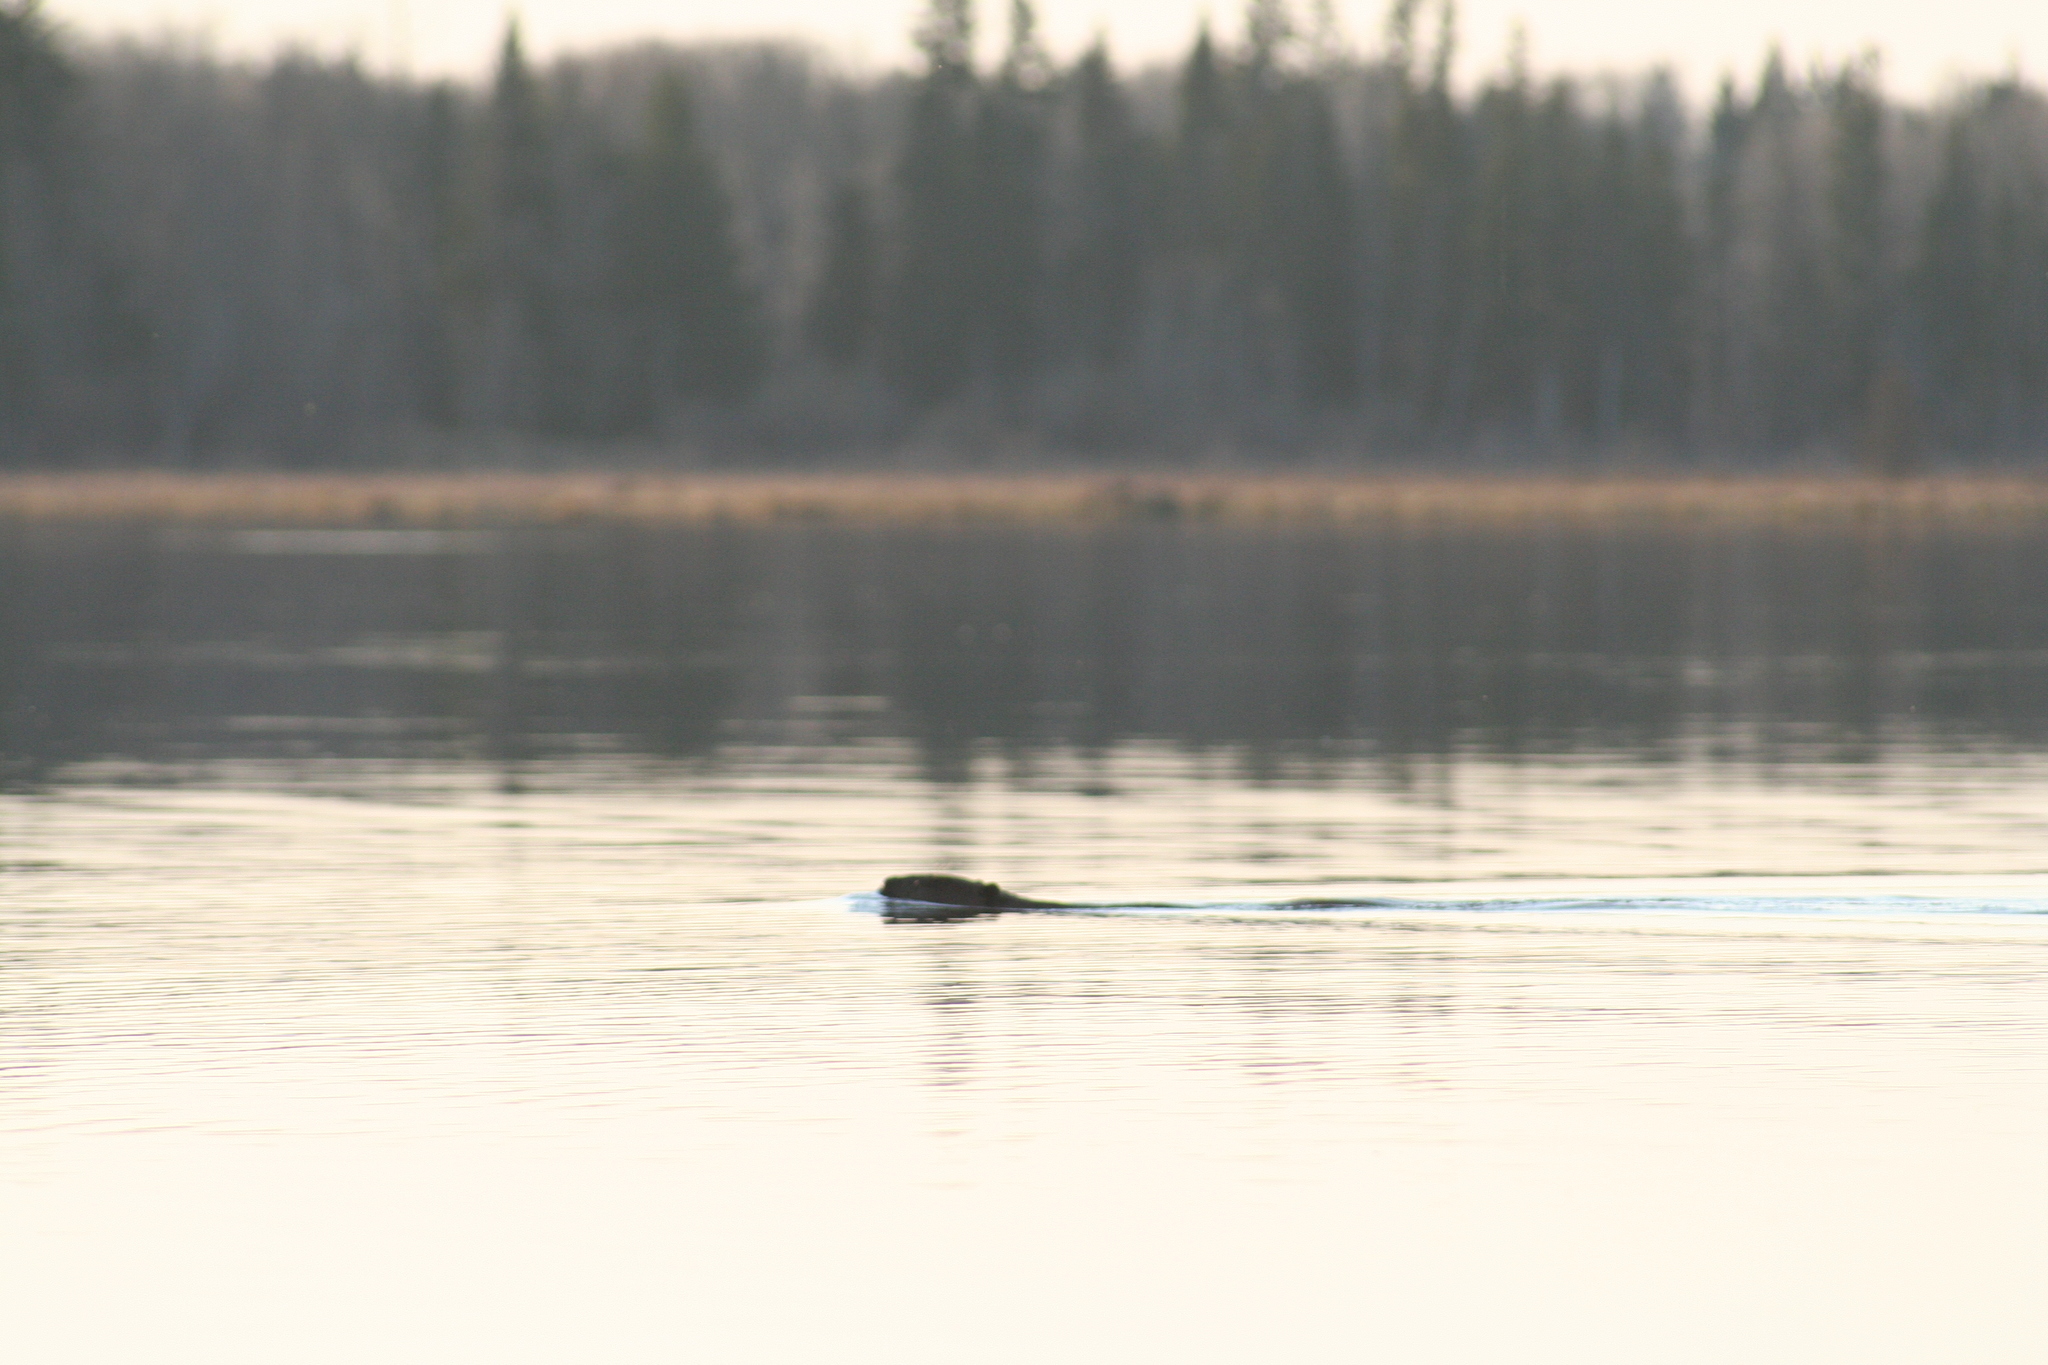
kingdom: Animalia
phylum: Chordata
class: Mammalia
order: Rodentia
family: Castoridae
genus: Castor
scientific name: Castor canadensis
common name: American beaver
